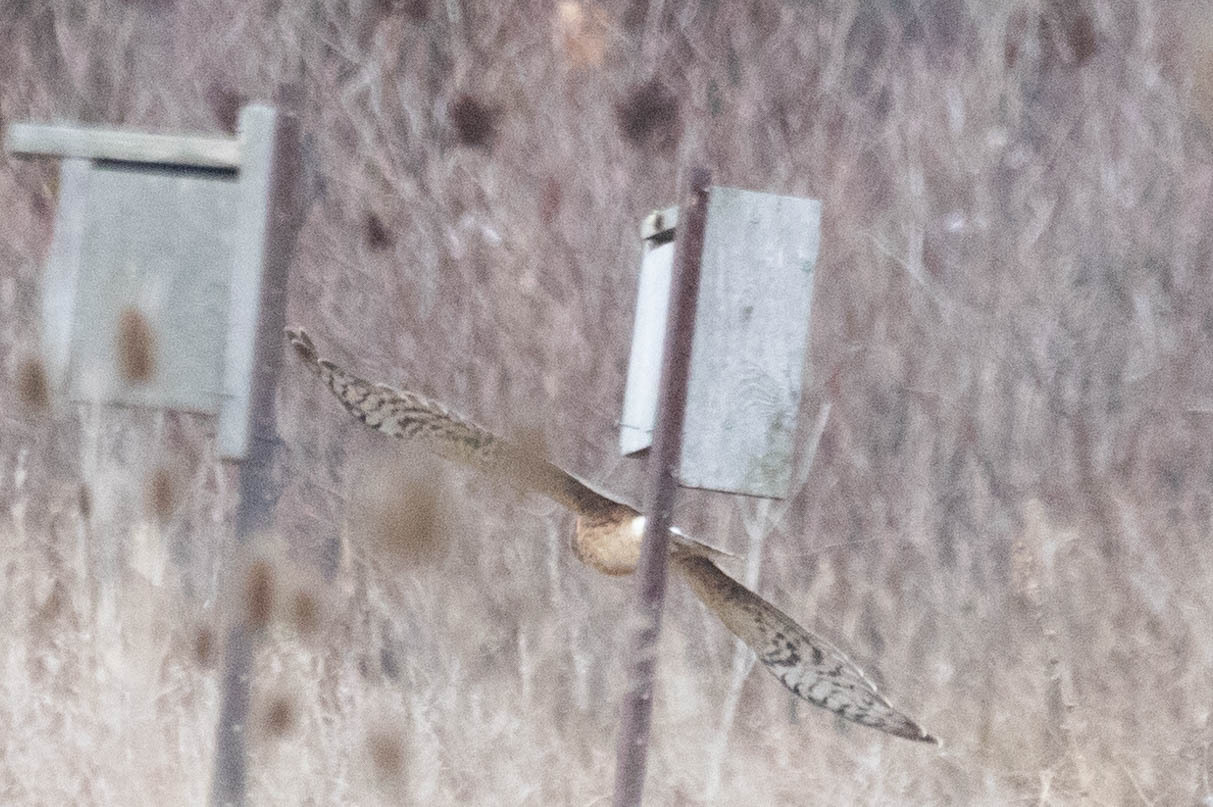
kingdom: Animalia
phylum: Chordata
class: Aves
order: Accipitriformes
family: Accipitridae
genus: Circus
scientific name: Circus cyaneus
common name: Hen harrier
